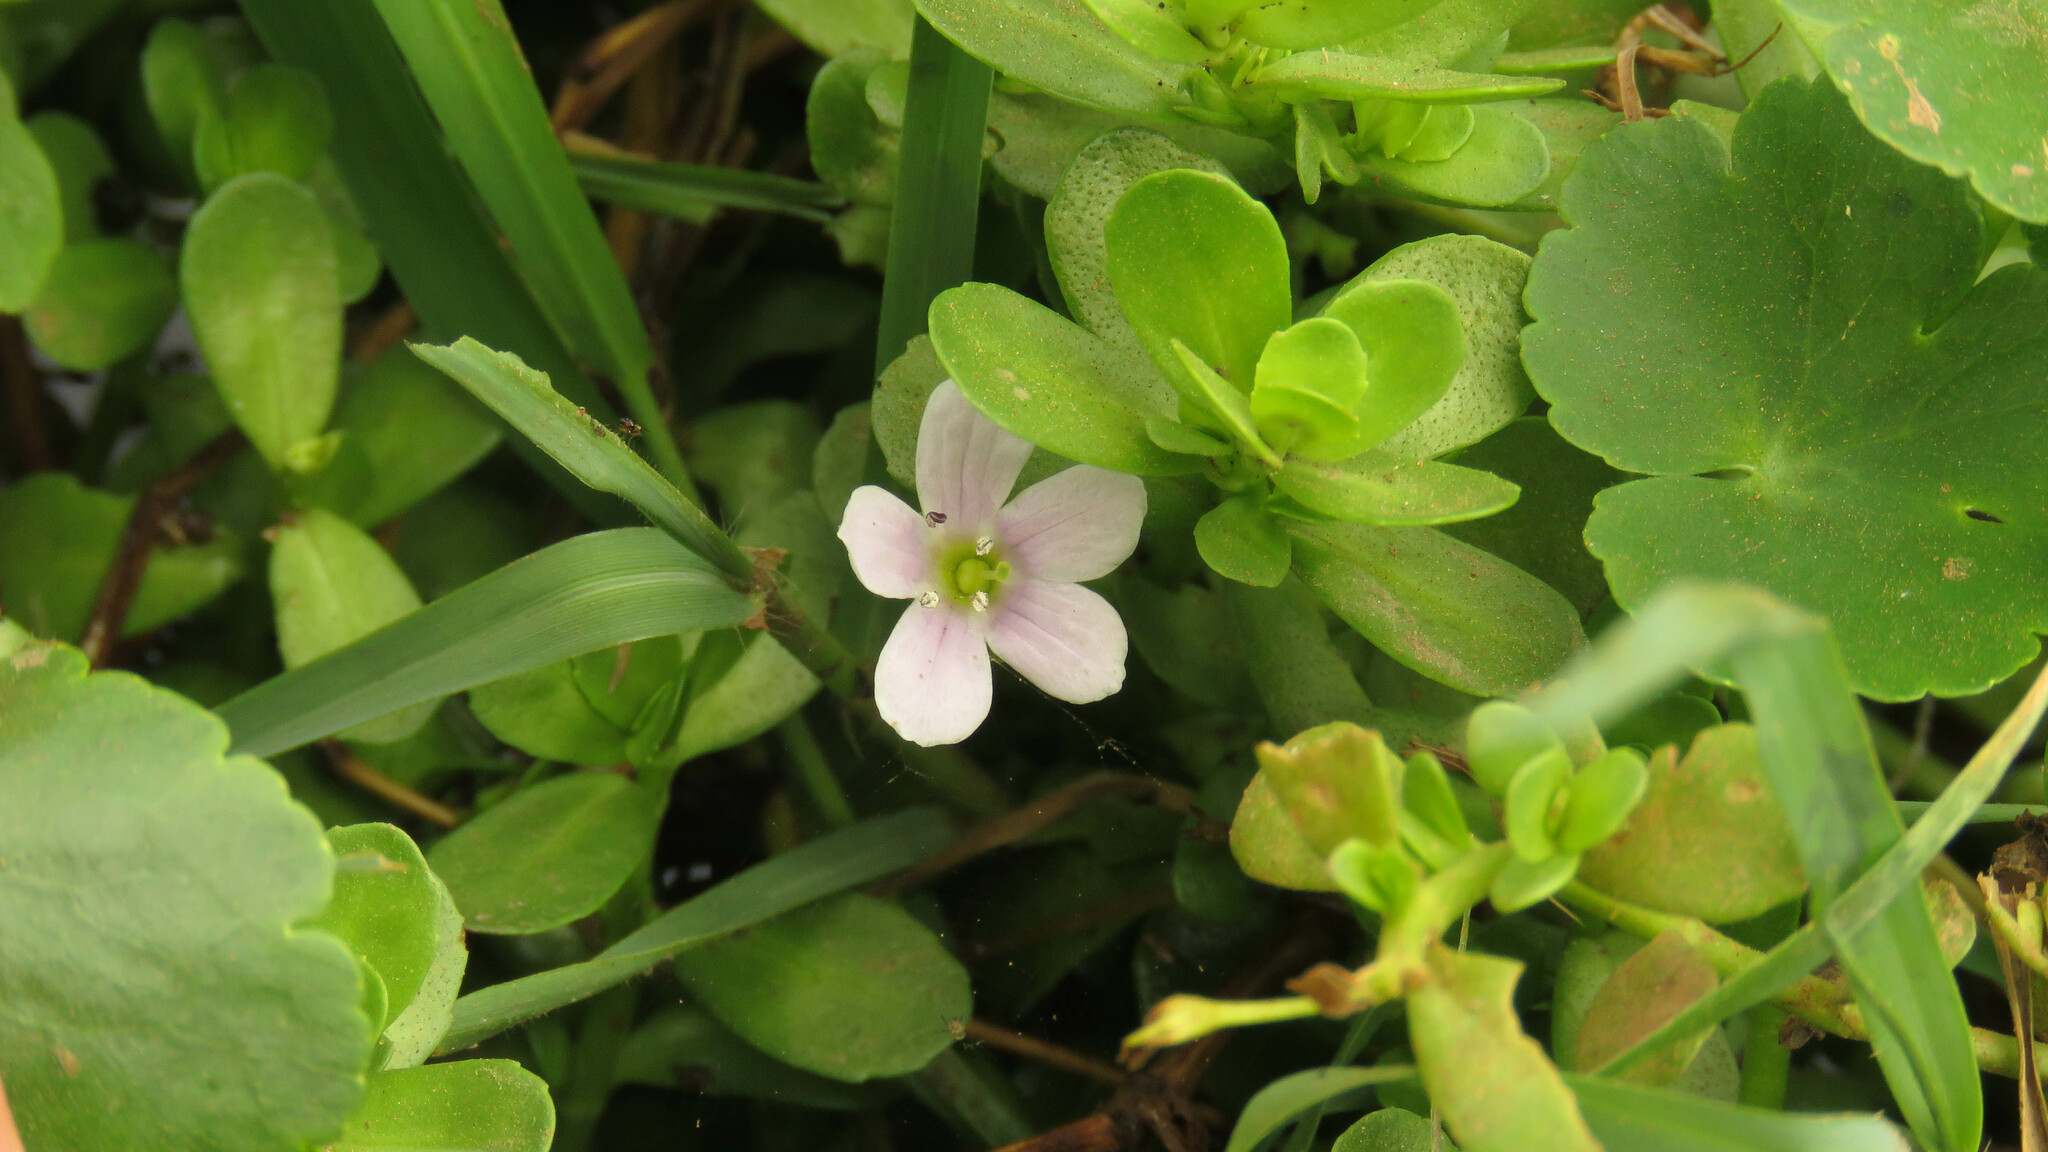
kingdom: Plantae
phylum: Tracheophyta
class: Magnoliopsida
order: Lamiales
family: Plantaginaceae
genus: Bacopa
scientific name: Bacopa monnieri
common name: Indian-pennywort
